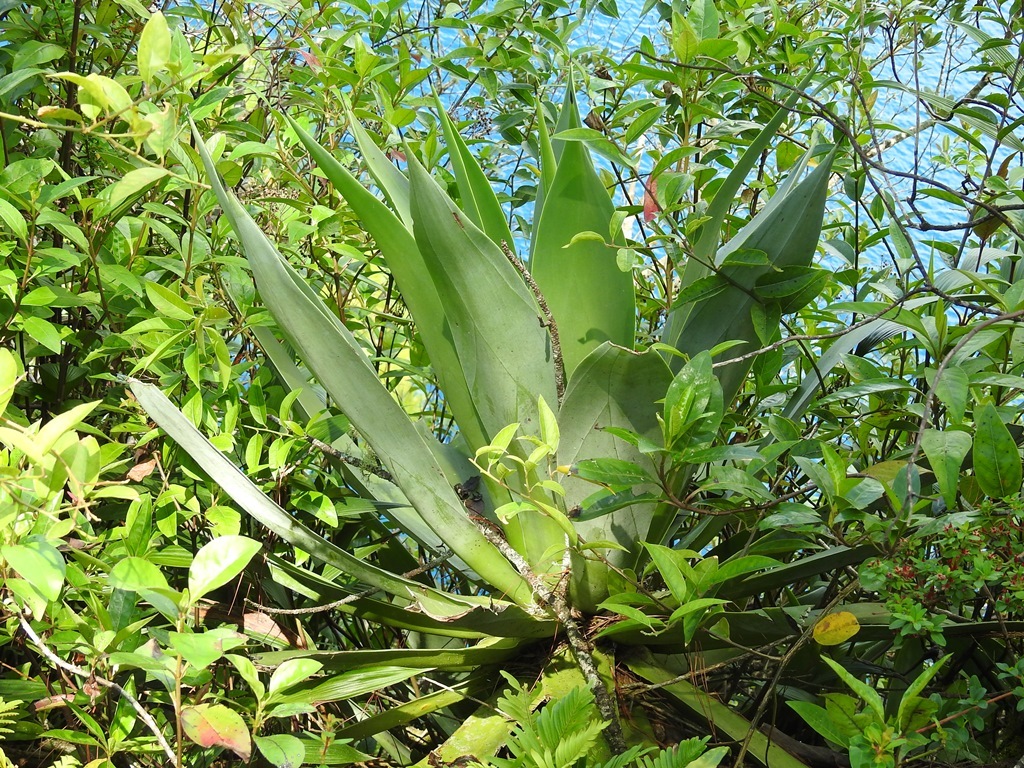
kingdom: Plantae
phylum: Tracheophyta
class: Liliopsida
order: Asparagales
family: Asparagaceae
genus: Agave
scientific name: Agave warelliana
